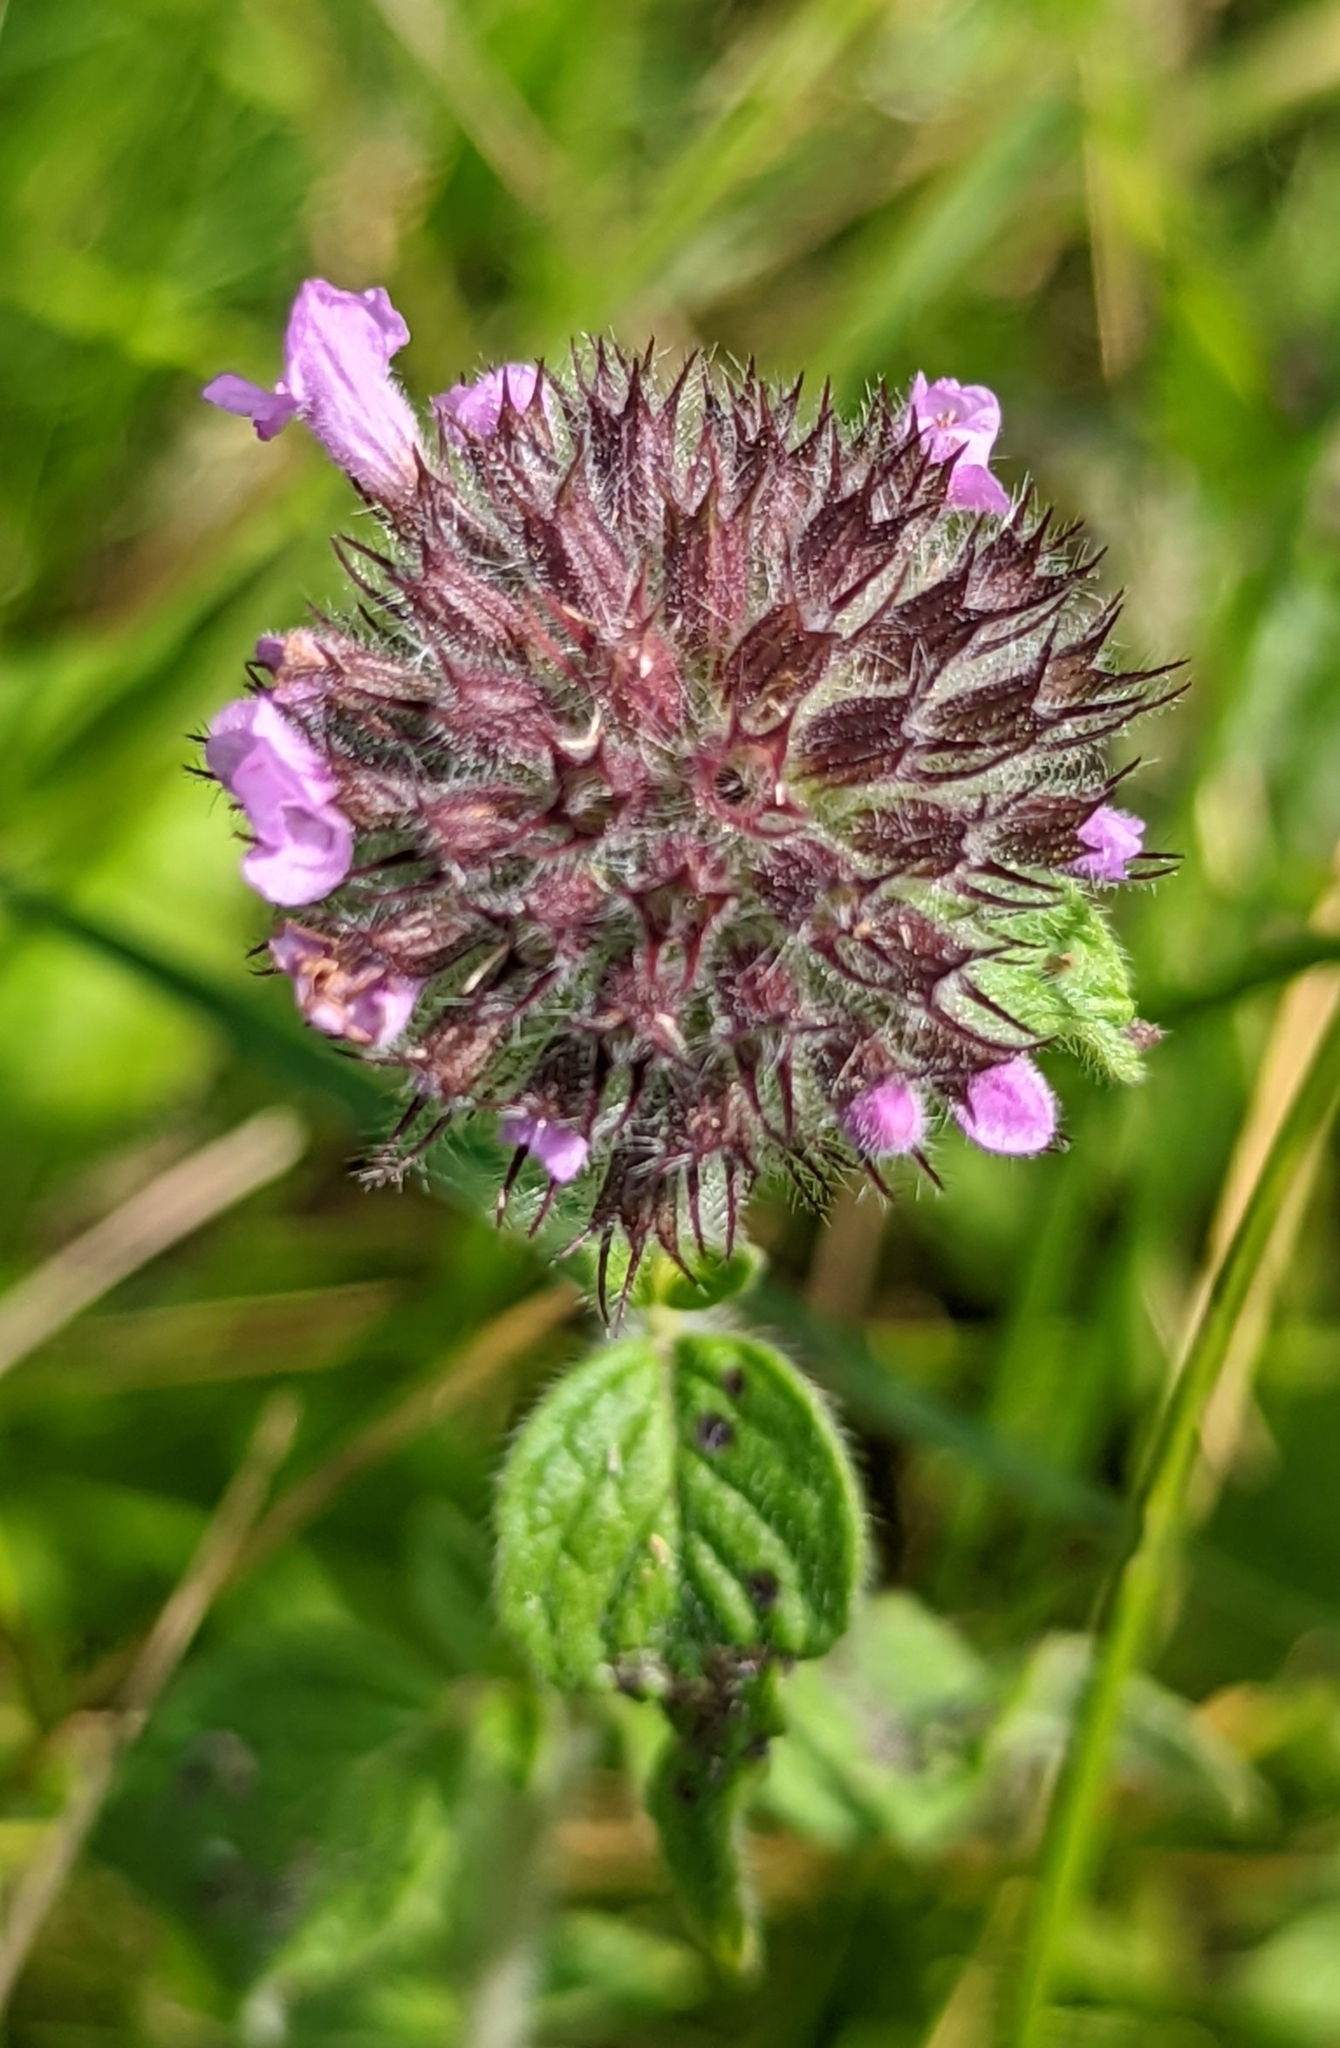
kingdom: Plantae
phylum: Tracheophyta
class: Magnoliopsida
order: Lamiales
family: Lamiaceae
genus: Clinopodium
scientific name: Clinopodium vulgare
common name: Wild basil
